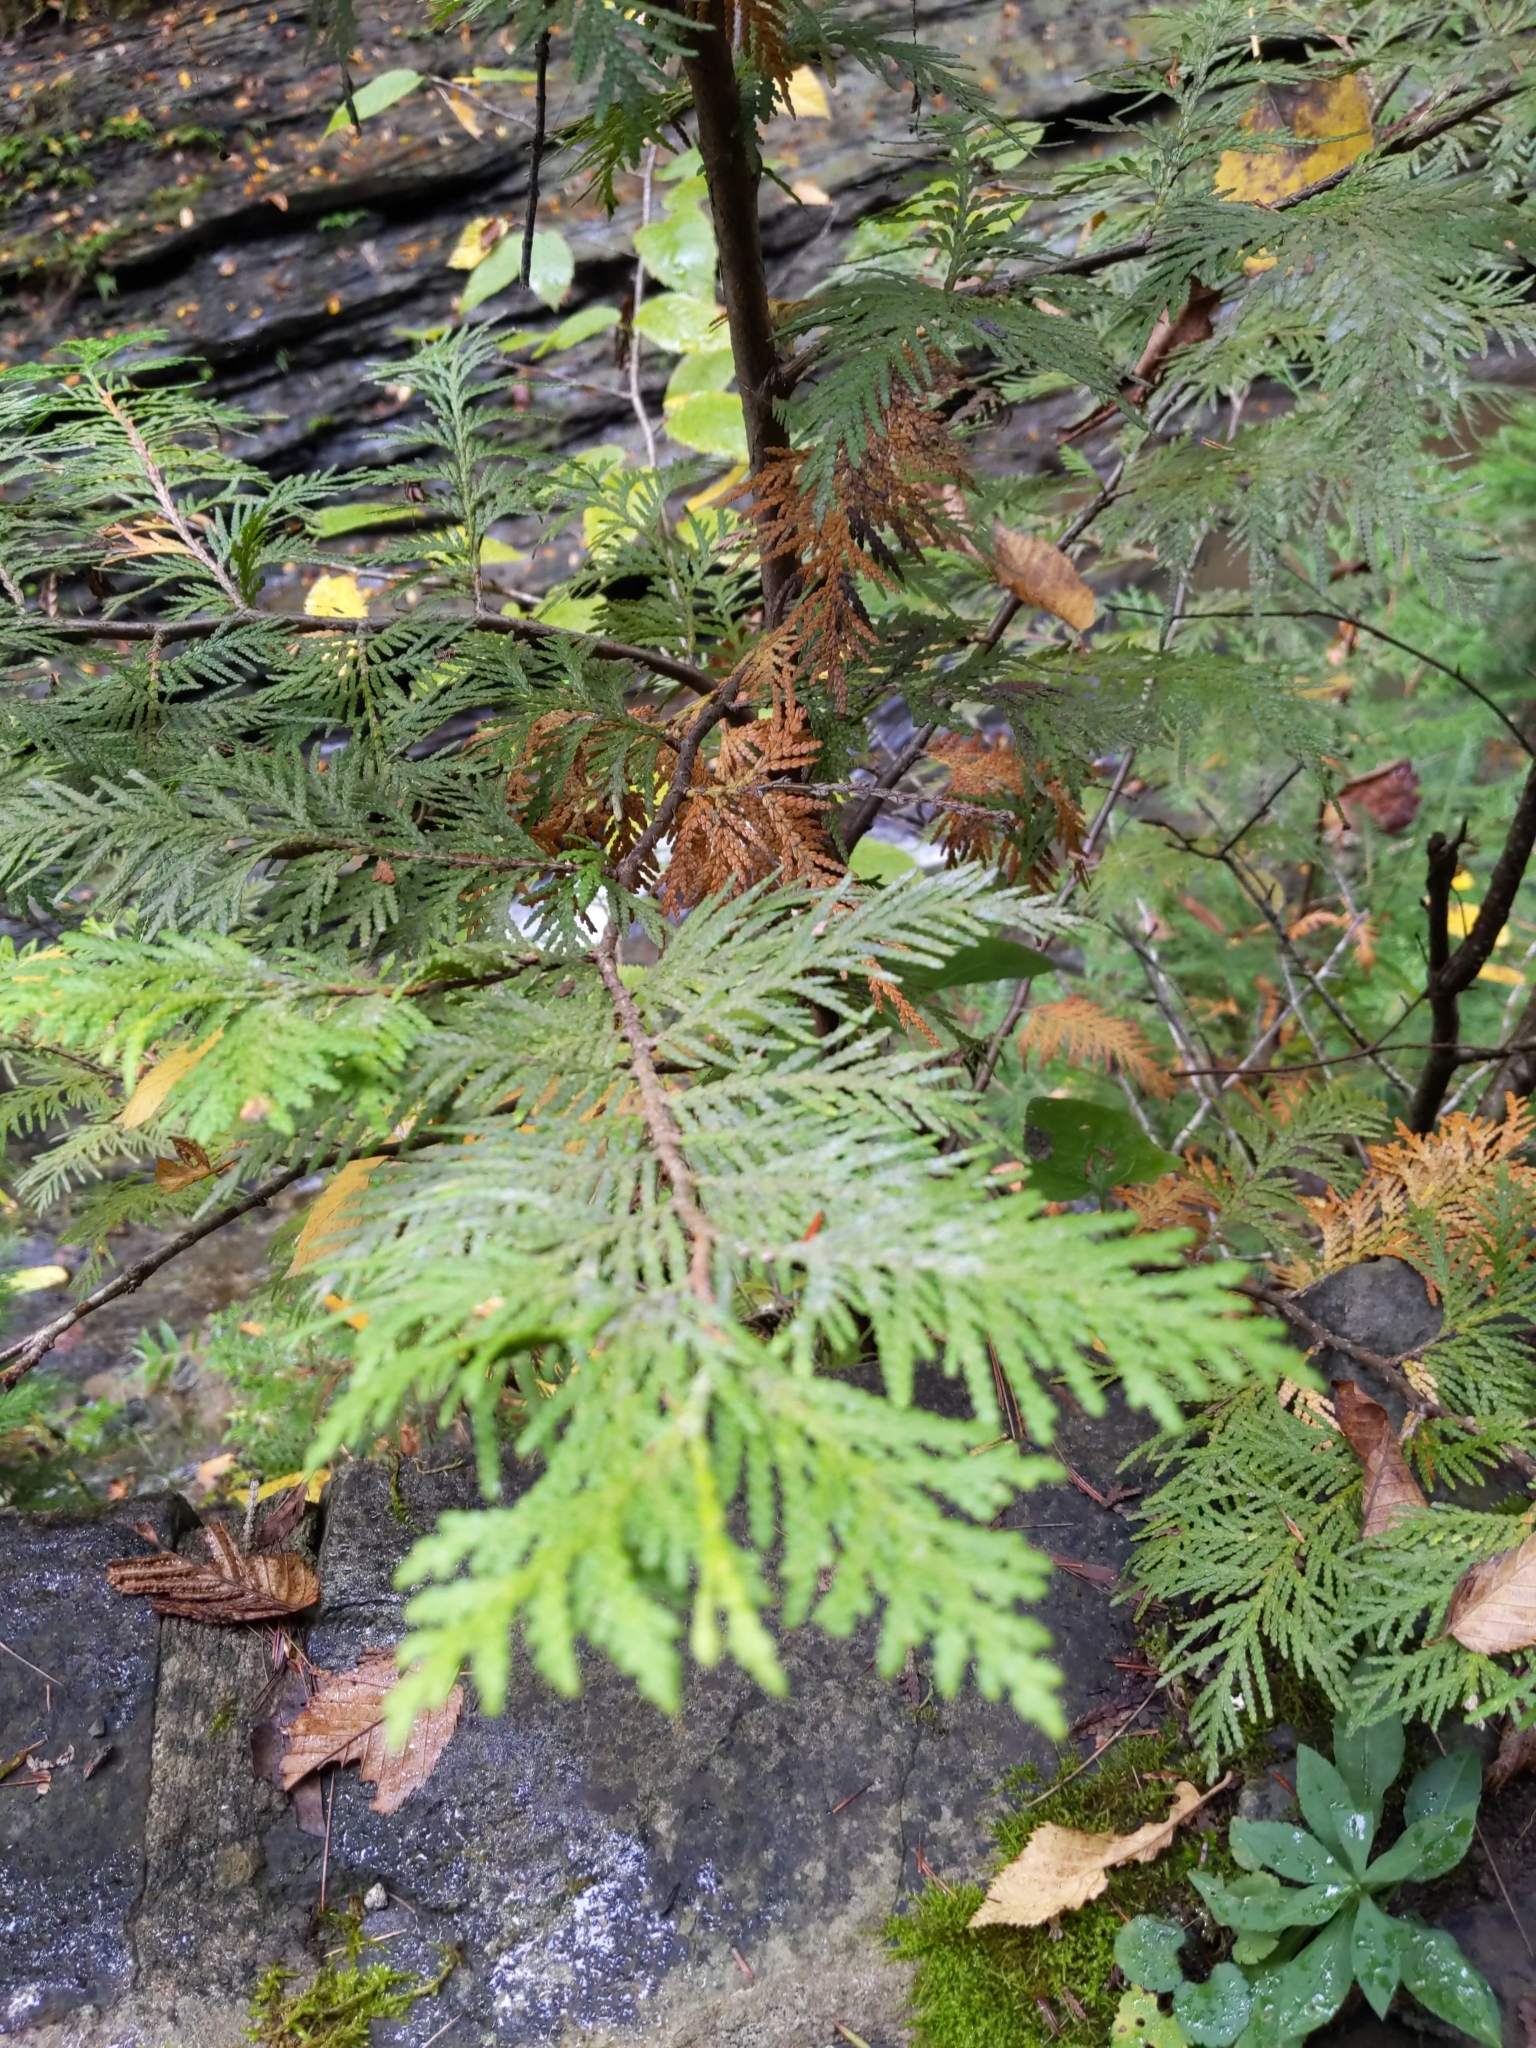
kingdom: Plantae
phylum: Tracheophyta
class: Pinopsida
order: Pinales
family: Cupressaceae
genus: Thuja
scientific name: Thuja occidentalis
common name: Northern white-cedar
